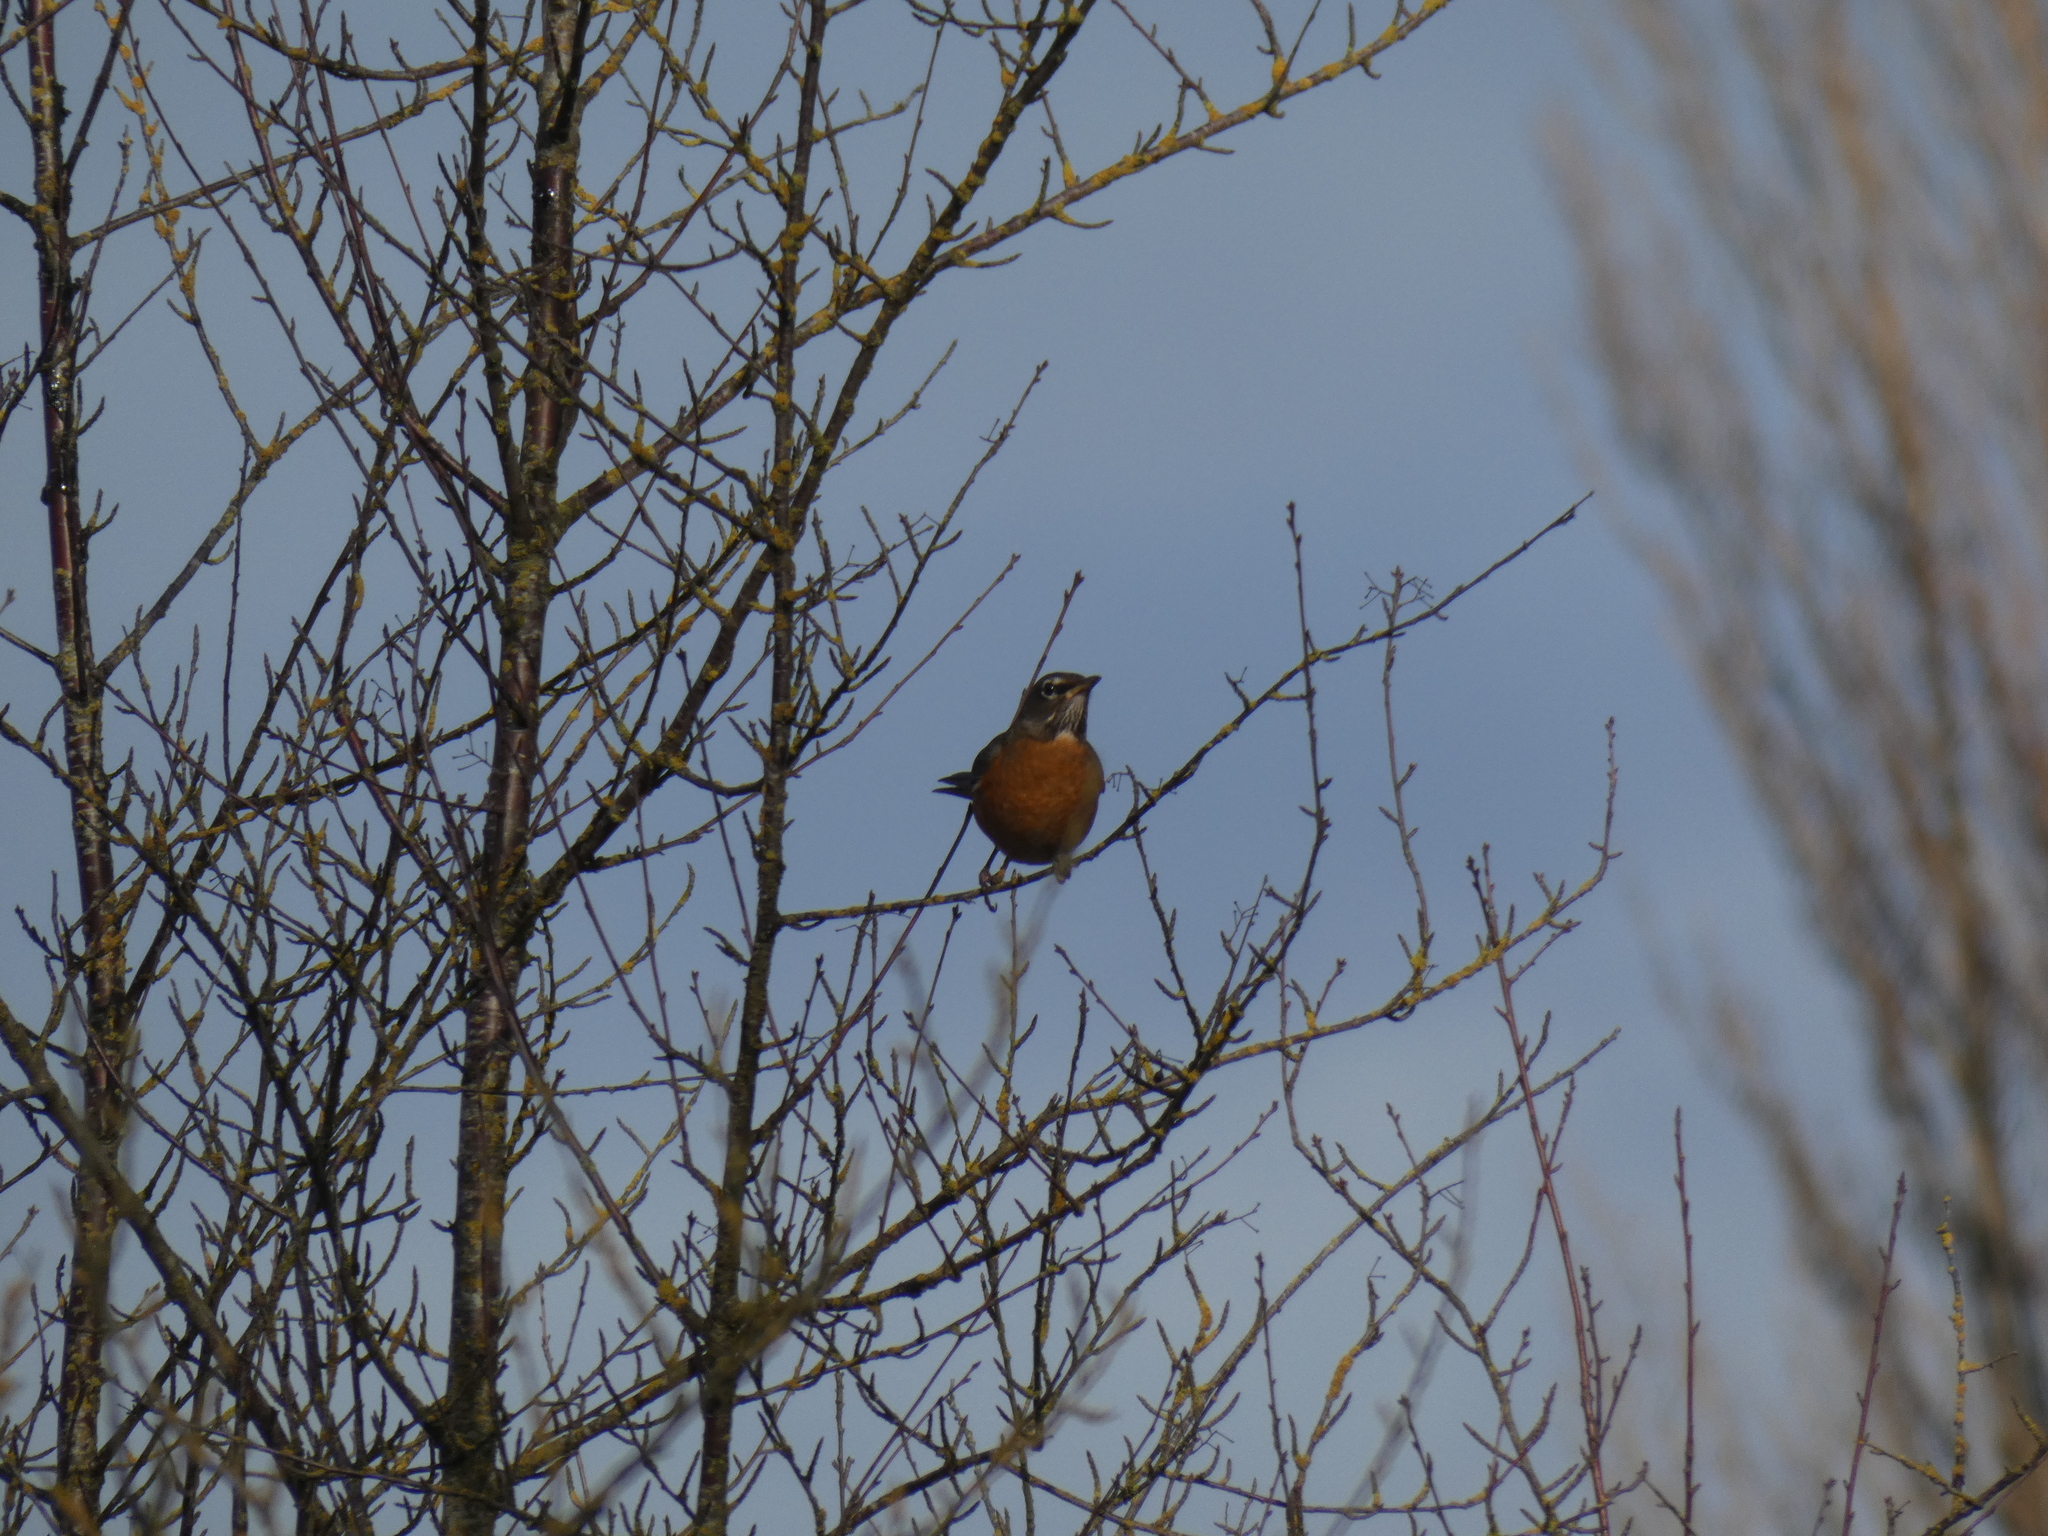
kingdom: Animalia
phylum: Chordata
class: Aves
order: Passeriformes
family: Turdidae
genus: Turdus
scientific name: Turdus migratorius
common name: American robin
